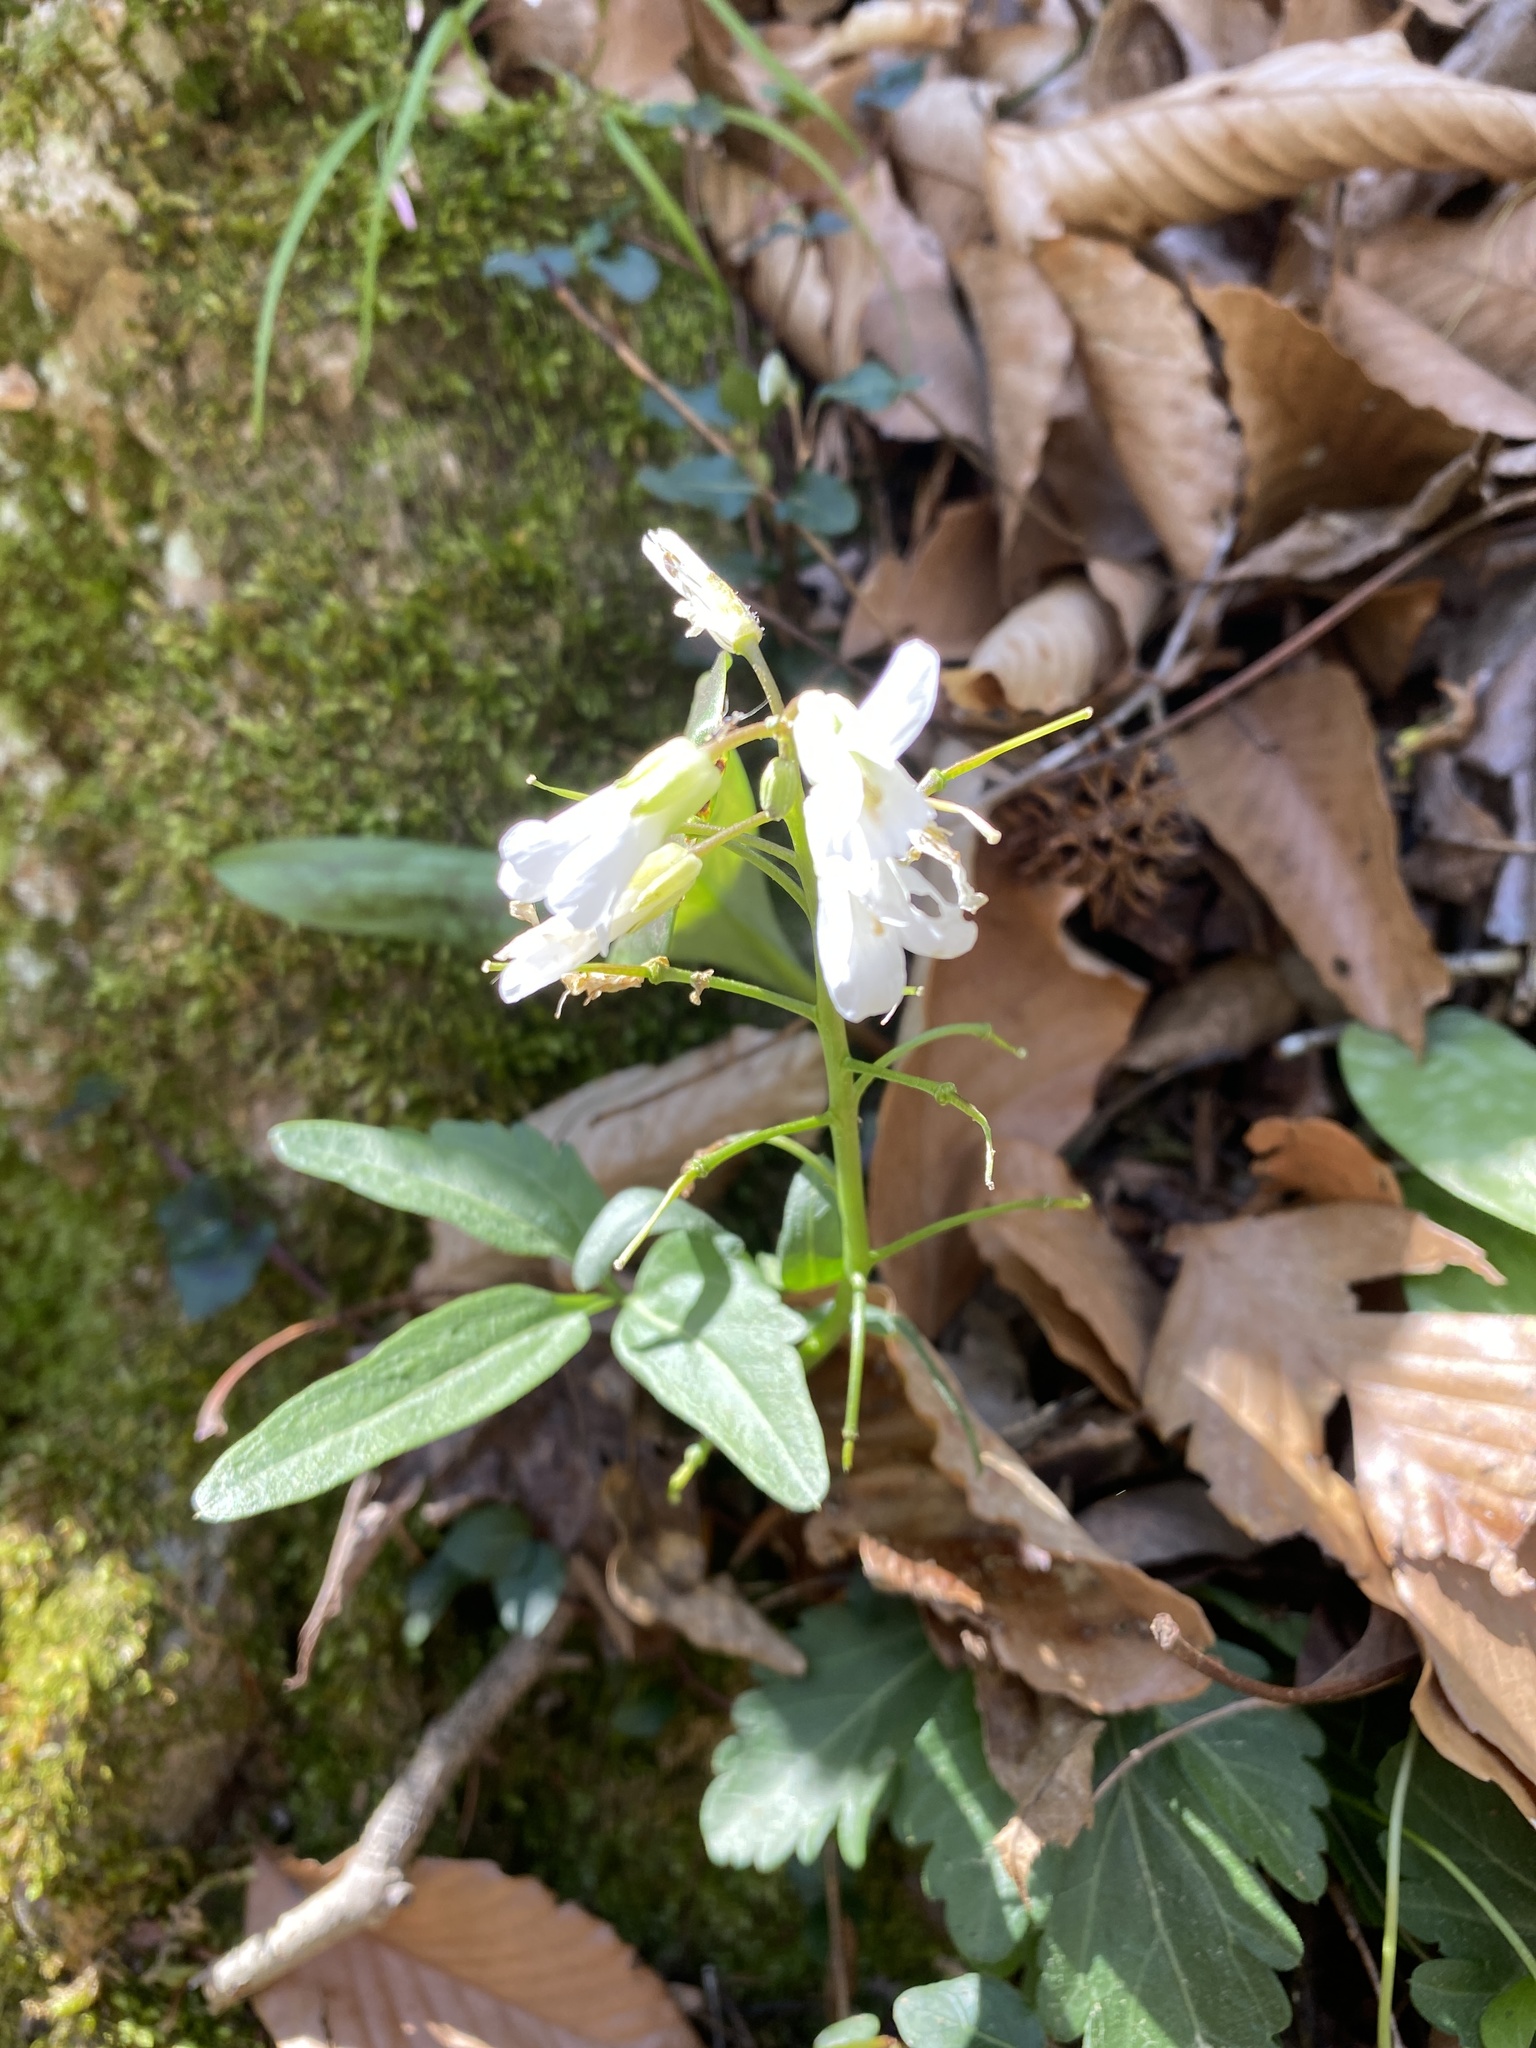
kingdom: Plantae
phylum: Tracheophyta
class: Magnoliopsida
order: Brassicales
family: Brassicaceae
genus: Cardamine
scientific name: Cardamine diphylla
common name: Broad-leaved toothwort
